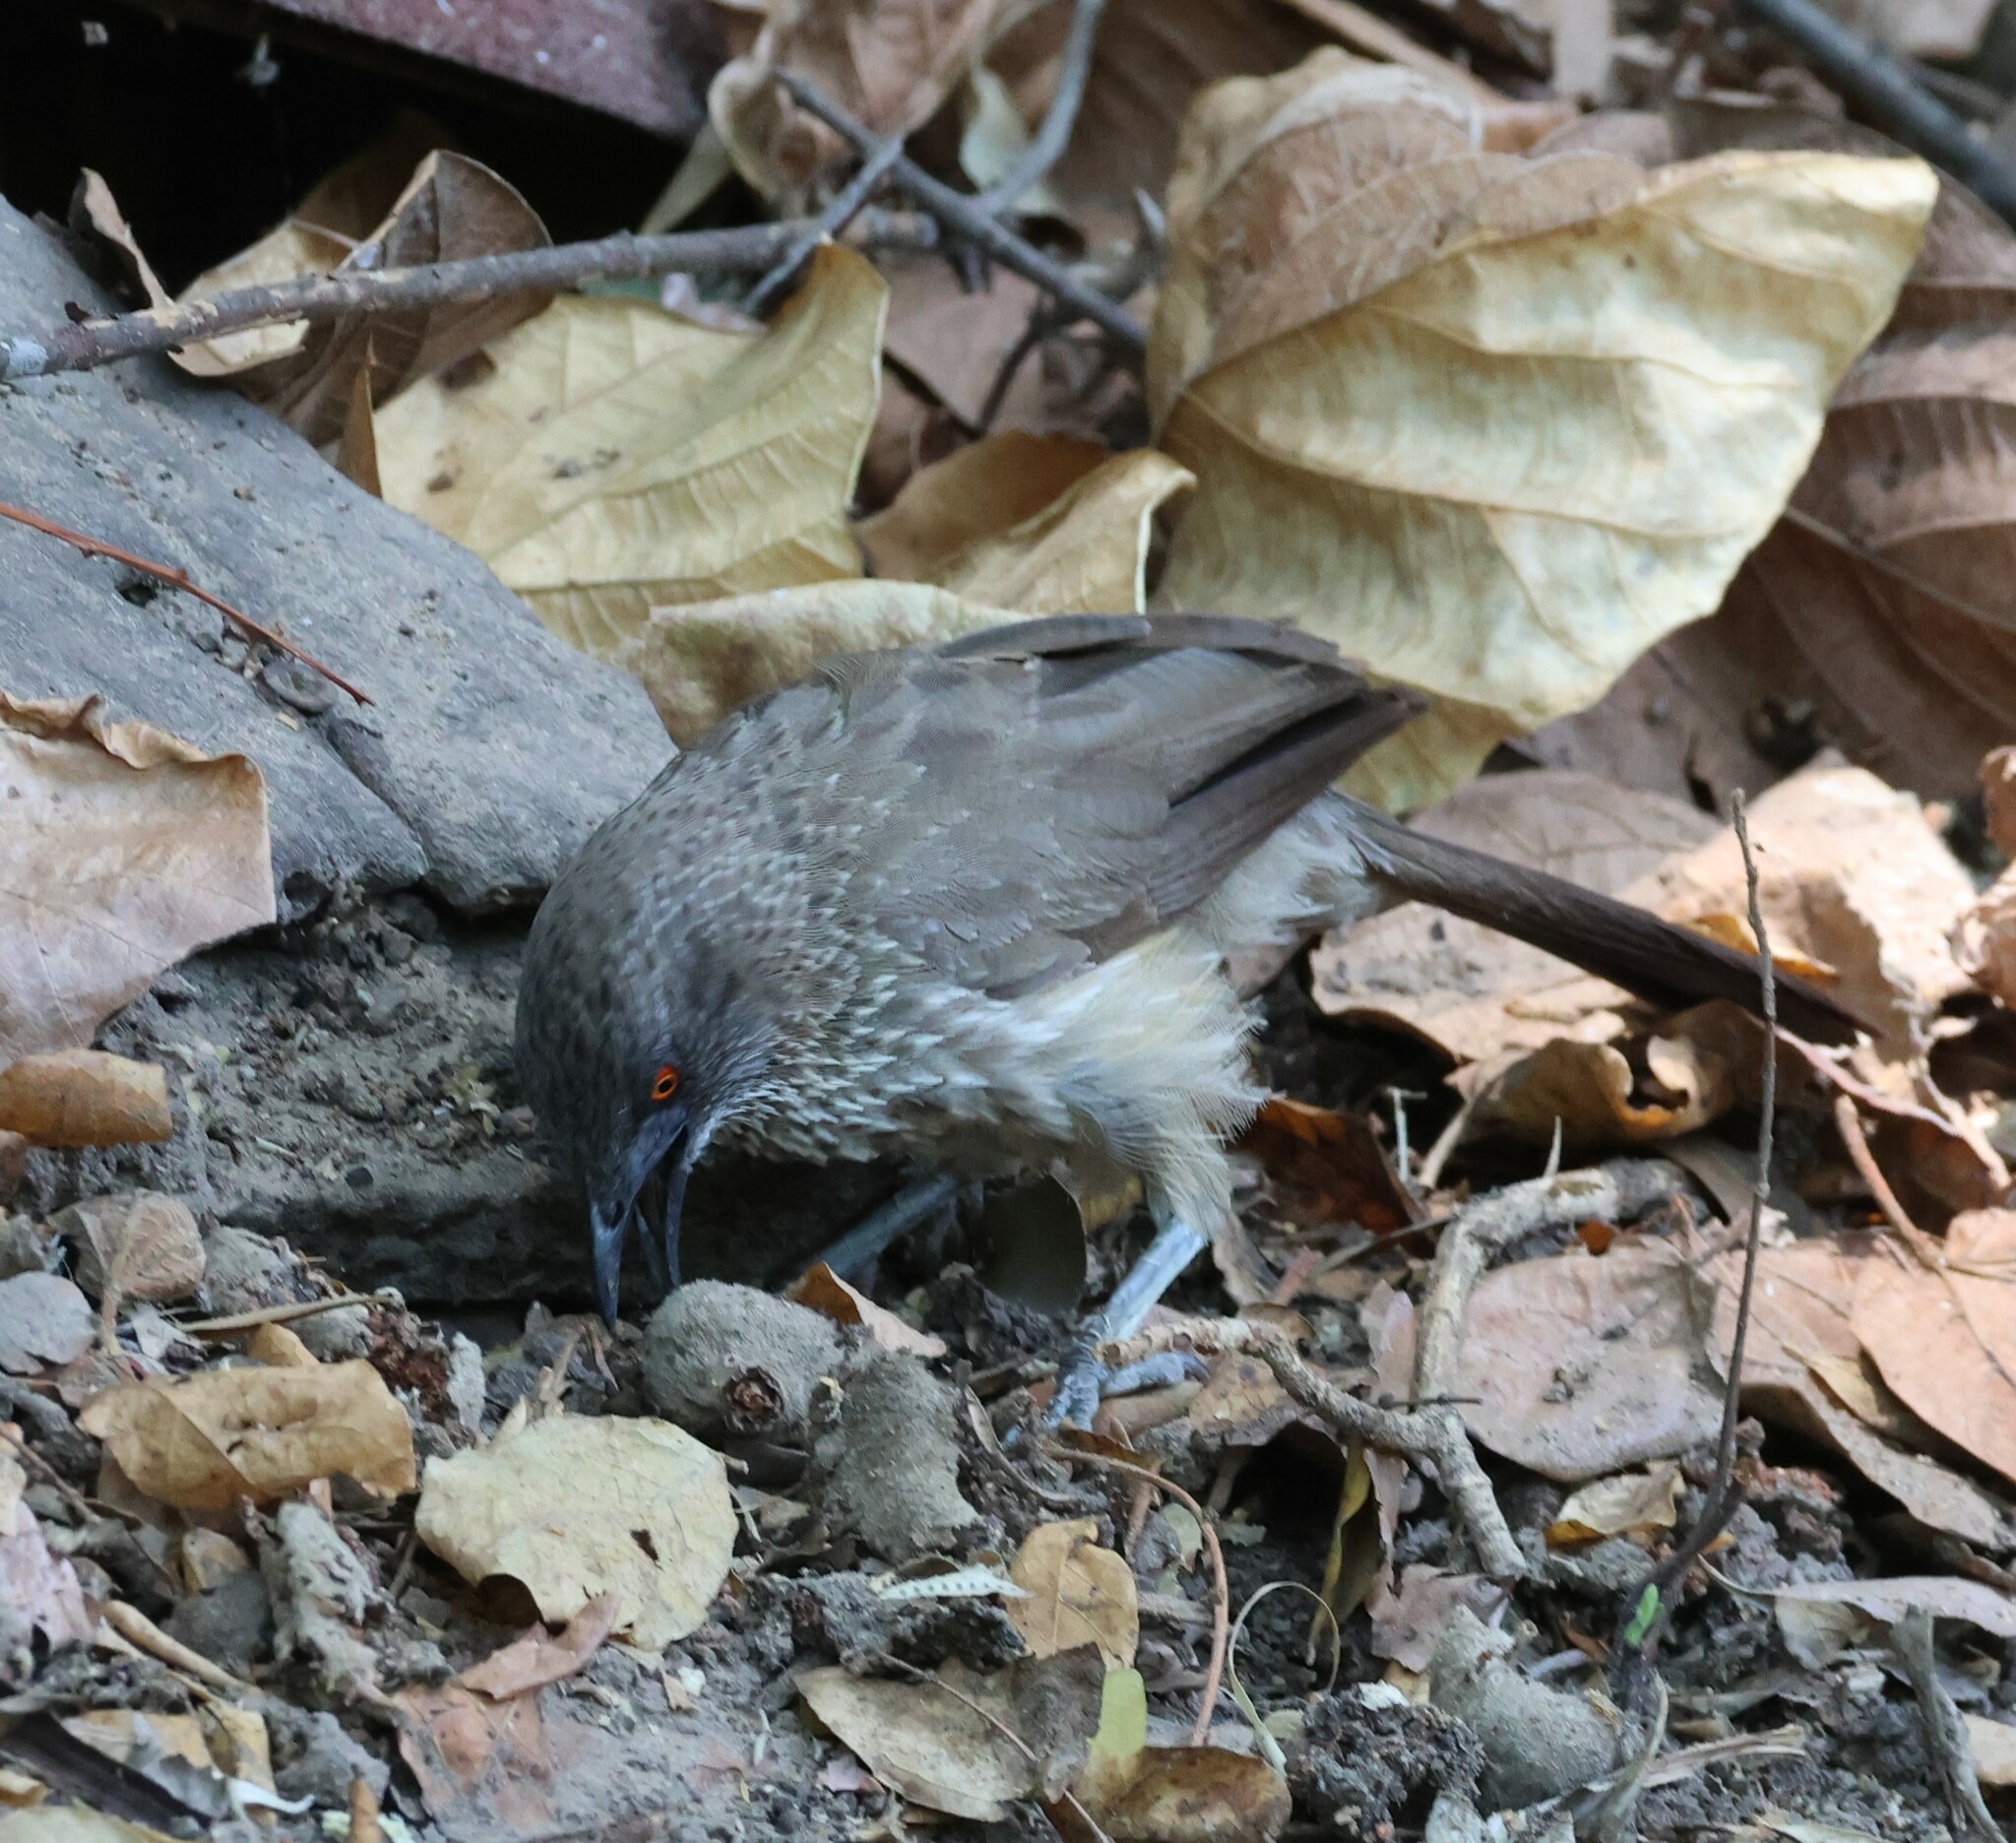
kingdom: Animalia
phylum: Chordata
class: Aves
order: Passeriformes
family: Leiothrichidae
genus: Turdoides
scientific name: Turdoides jardineii
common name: Arrow-marked babbler
